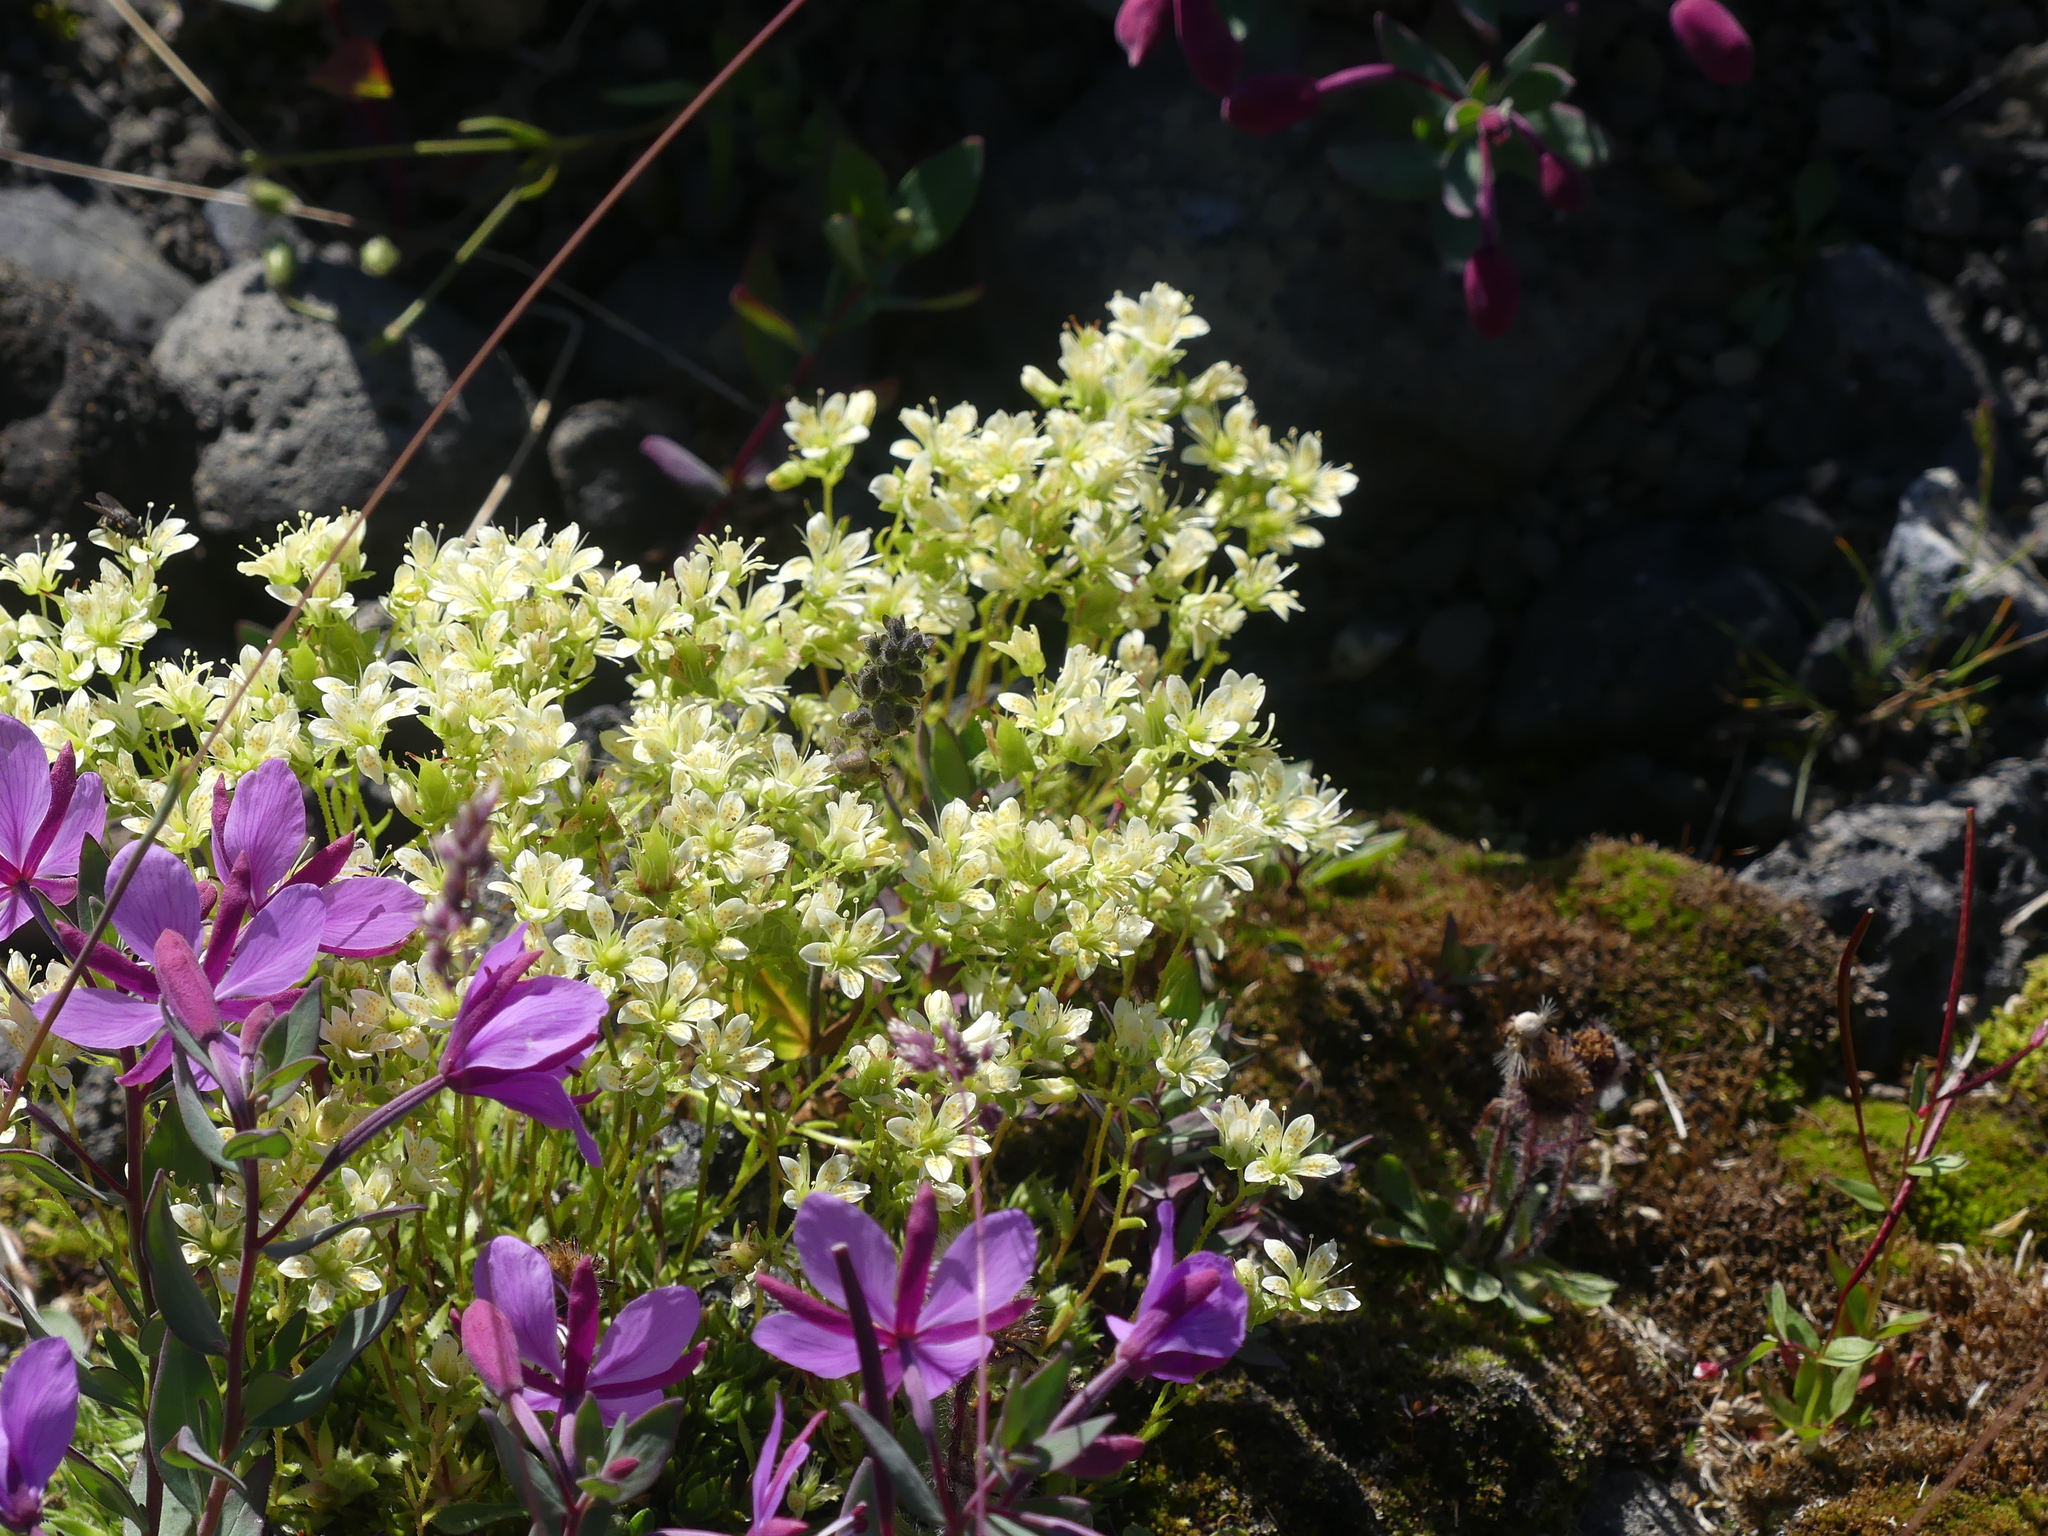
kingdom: Plantae
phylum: Tracheophyta
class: Magnoliopsida
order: Saxifragales
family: Saxifragaceae
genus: Saxifraga
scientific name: Saxifraga bronchialis
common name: Matted saxifrage
